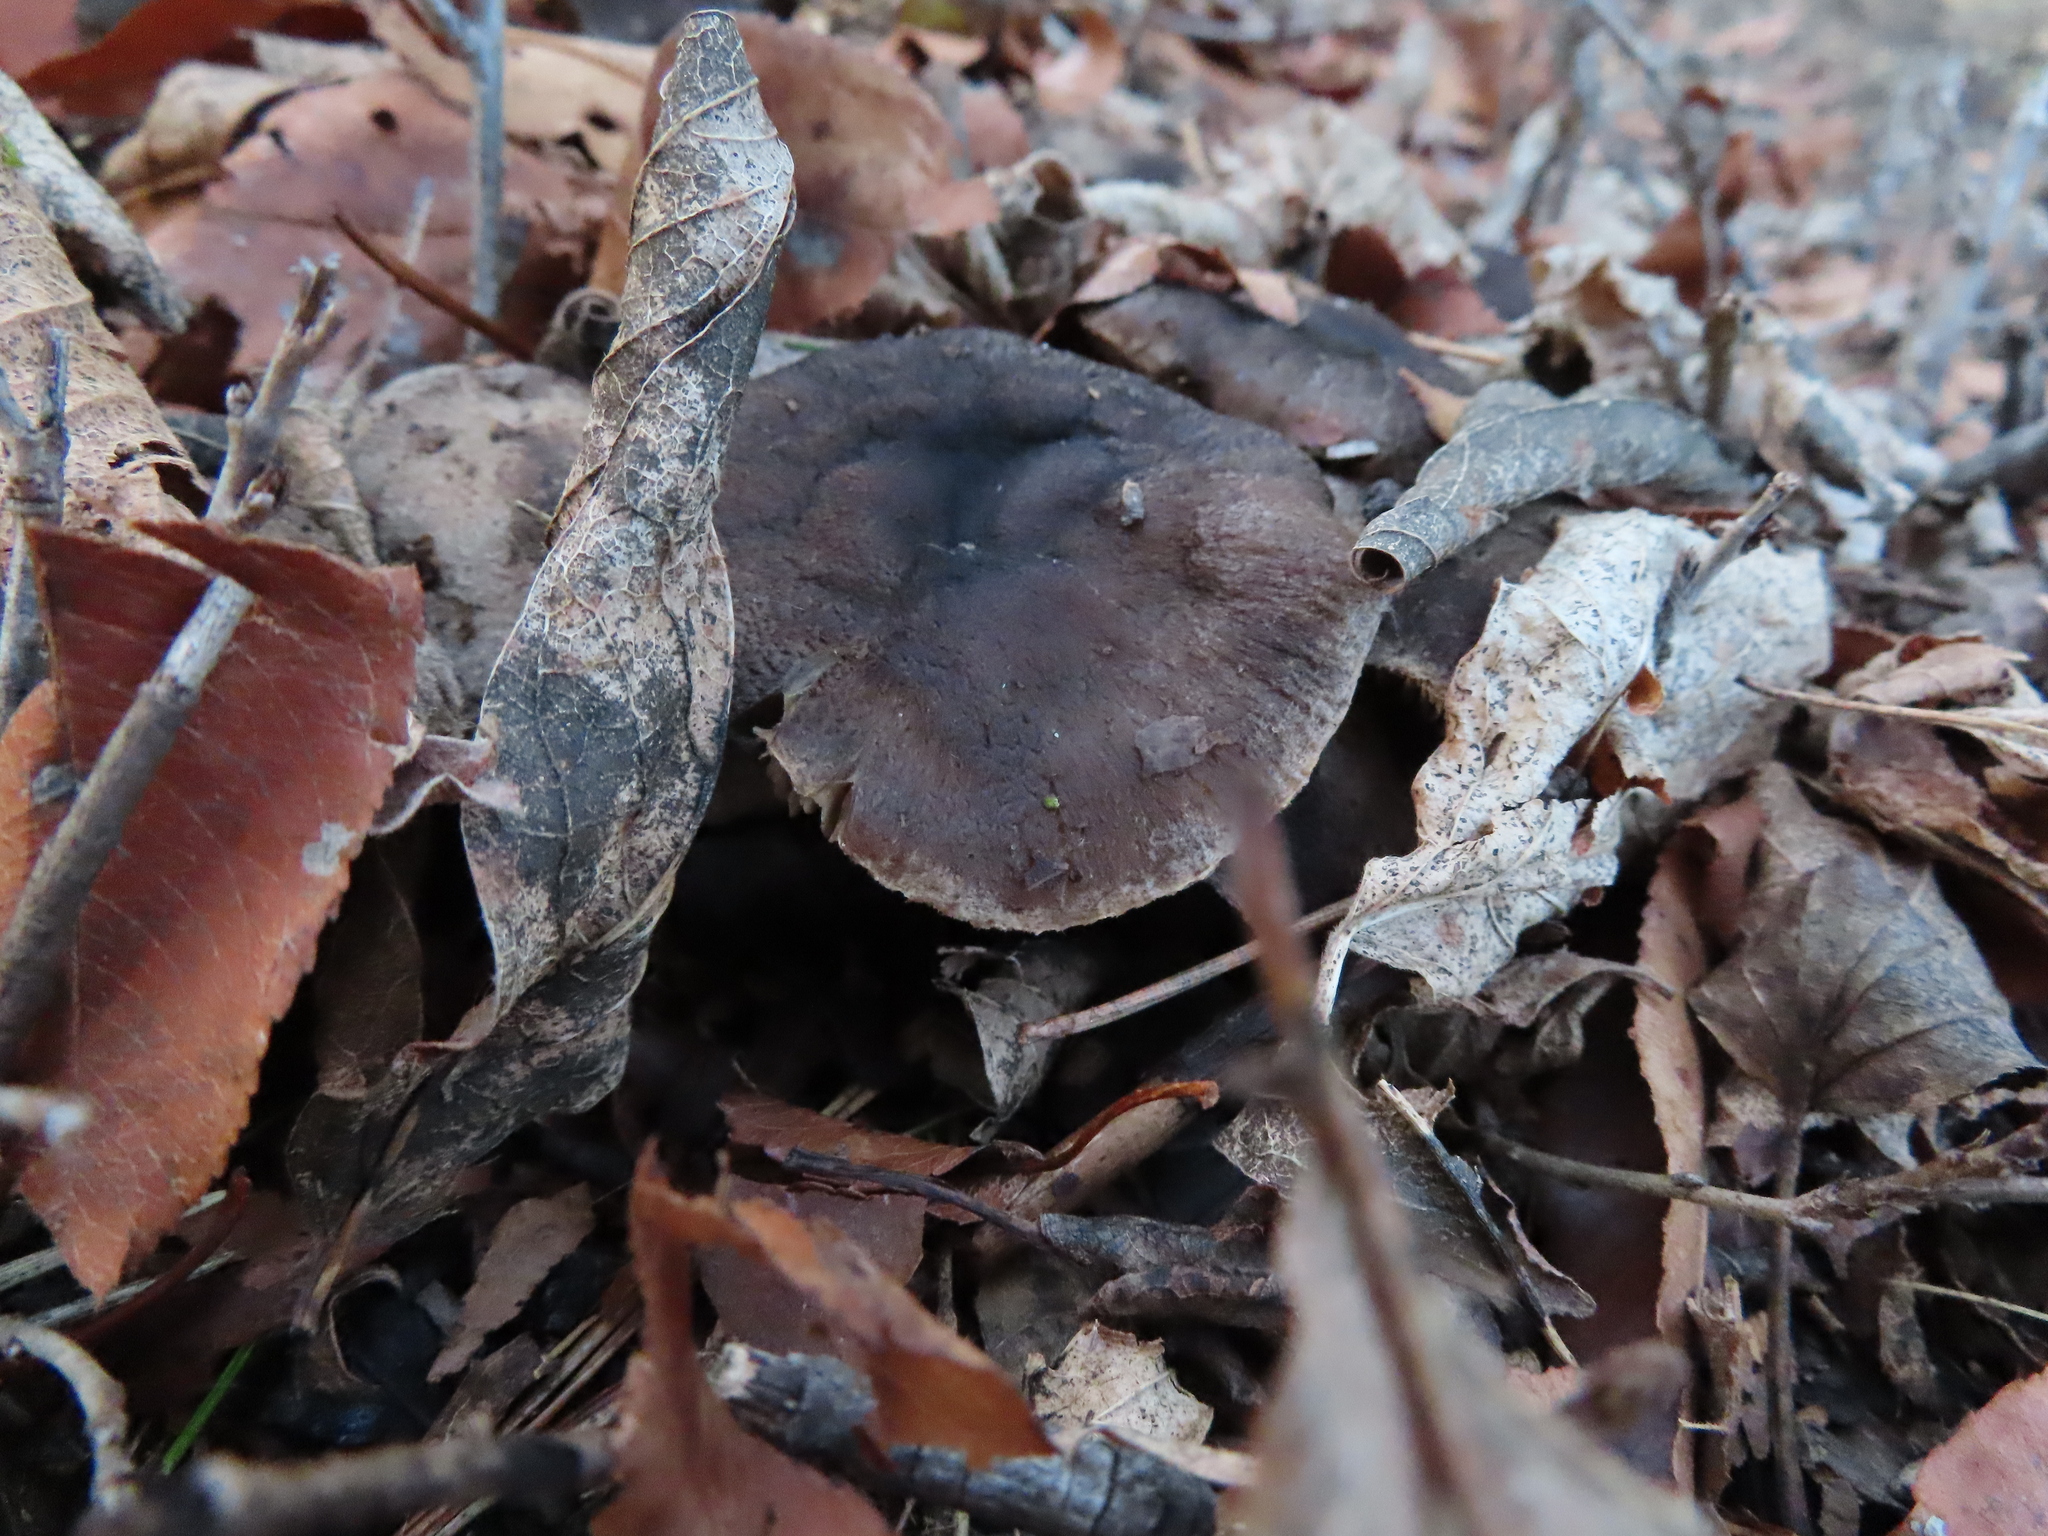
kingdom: Fungi
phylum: Basidiomycota
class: Agaricomycetes
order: Agaricales
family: Tricholomataceae
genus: Tricholoma
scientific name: Tricholoma terreum
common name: Grey knight
